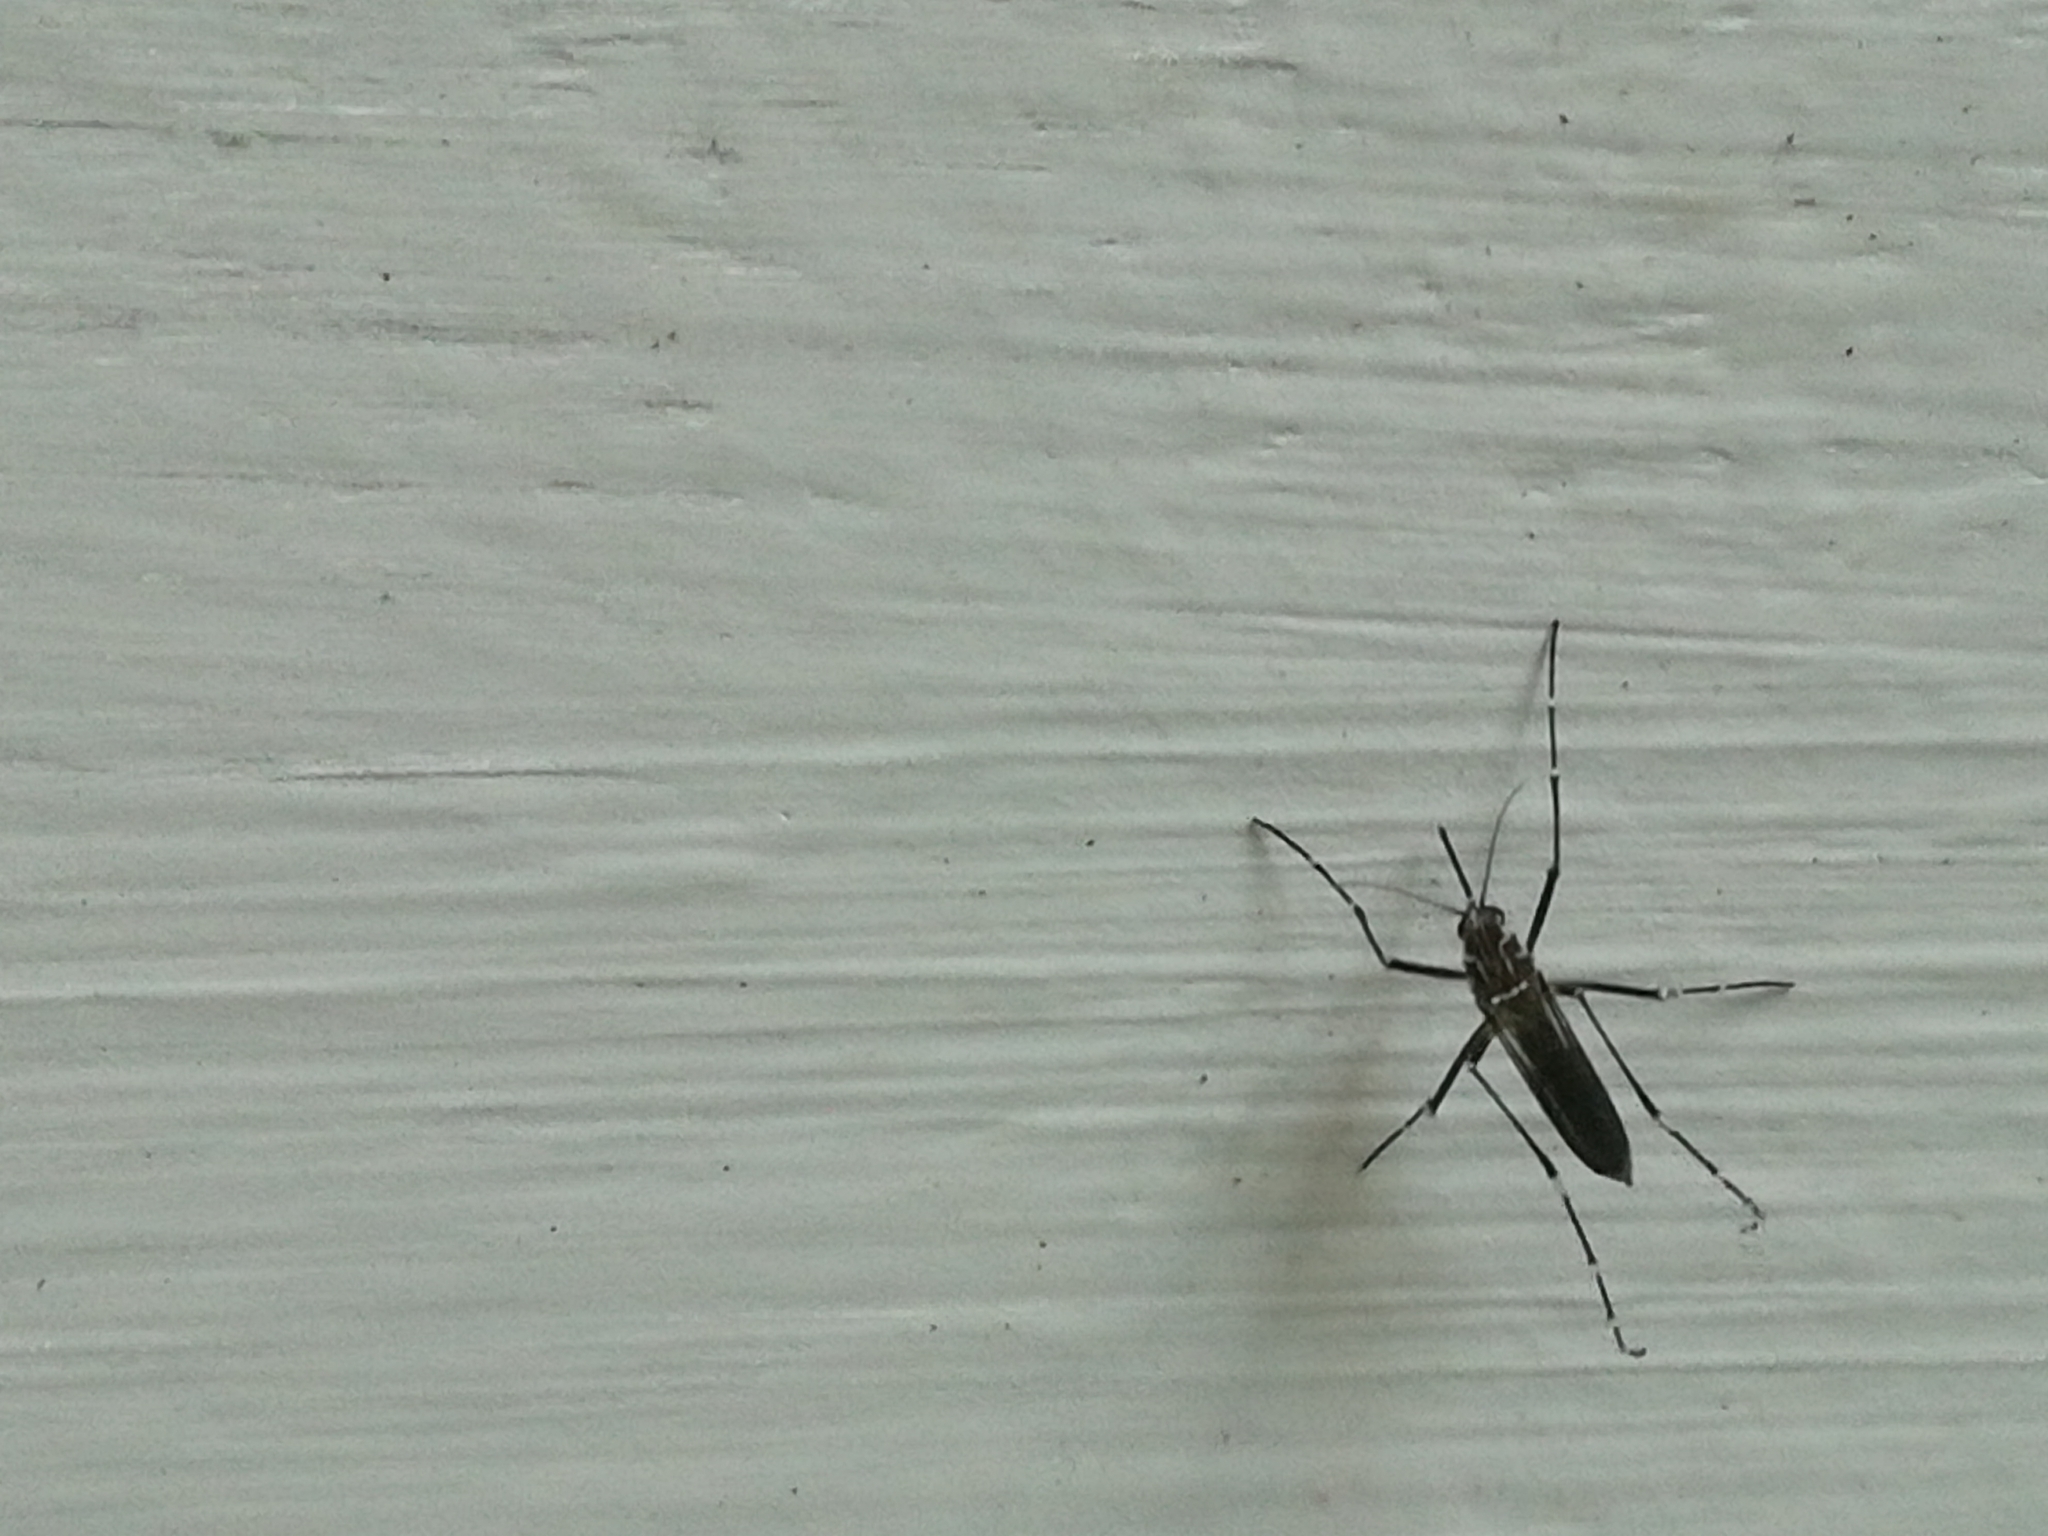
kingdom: Animalia
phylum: Arthropoda
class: Insecta
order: Diptera
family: Culicidae
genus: Aedes
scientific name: Aedes aegypti
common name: Yellow fever mosquito
